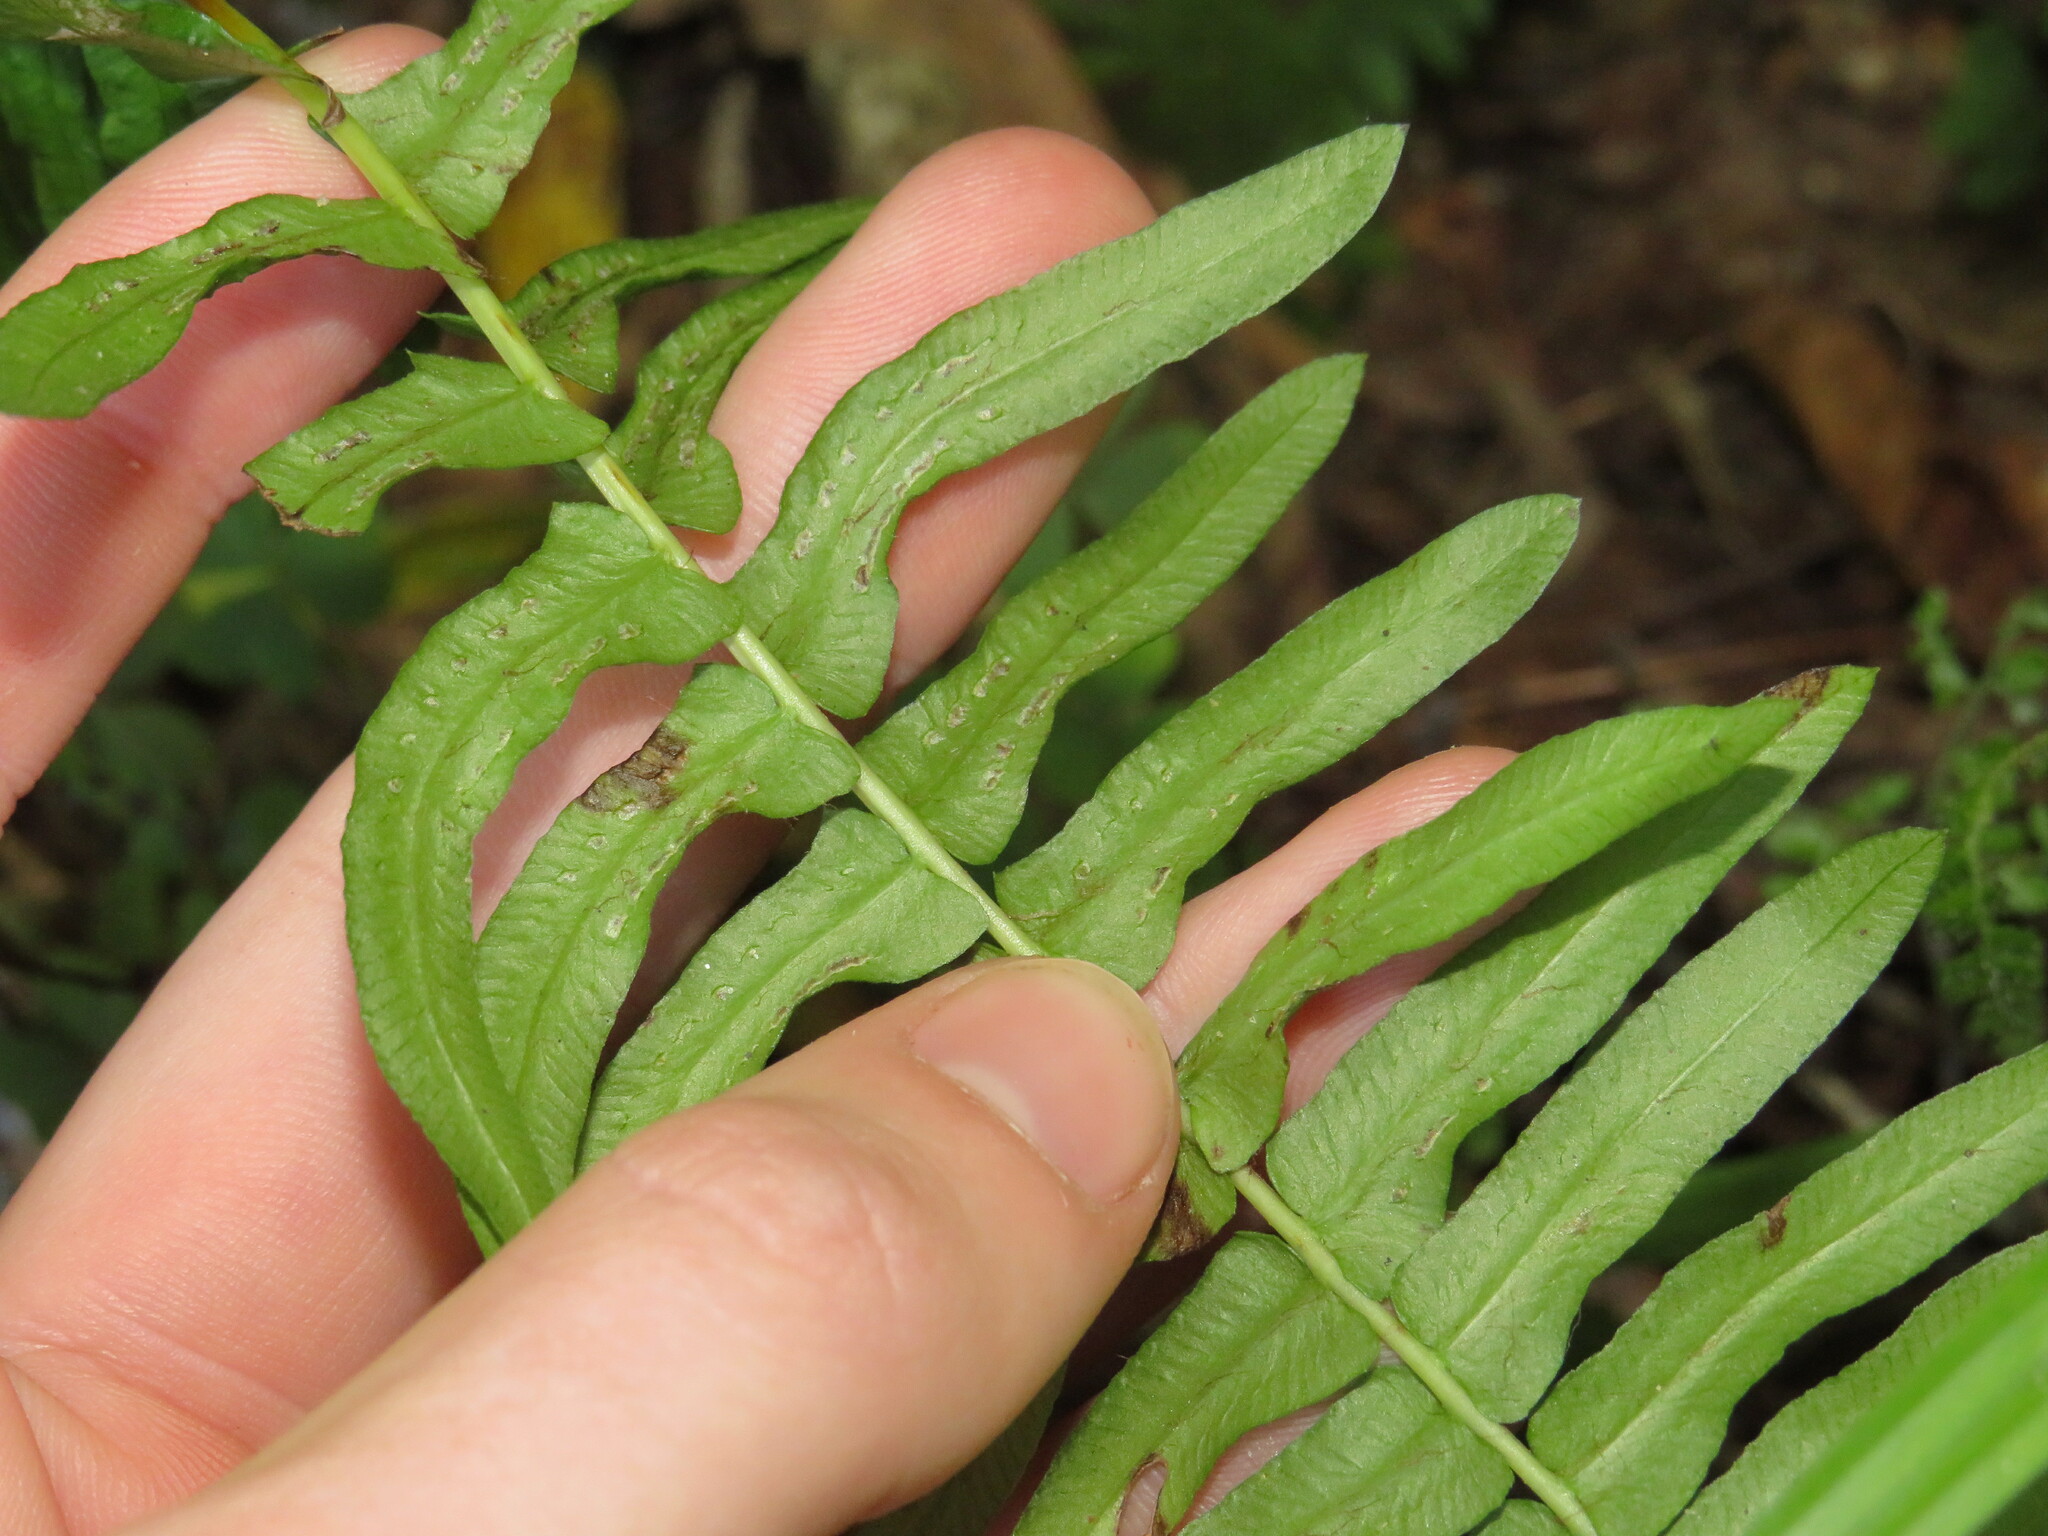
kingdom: Plantae
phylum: Tracheophyta
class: Polypodiopsida
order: Polypodiales
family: Blechnaceae
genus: Blechnum
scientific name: Blechnum australe
